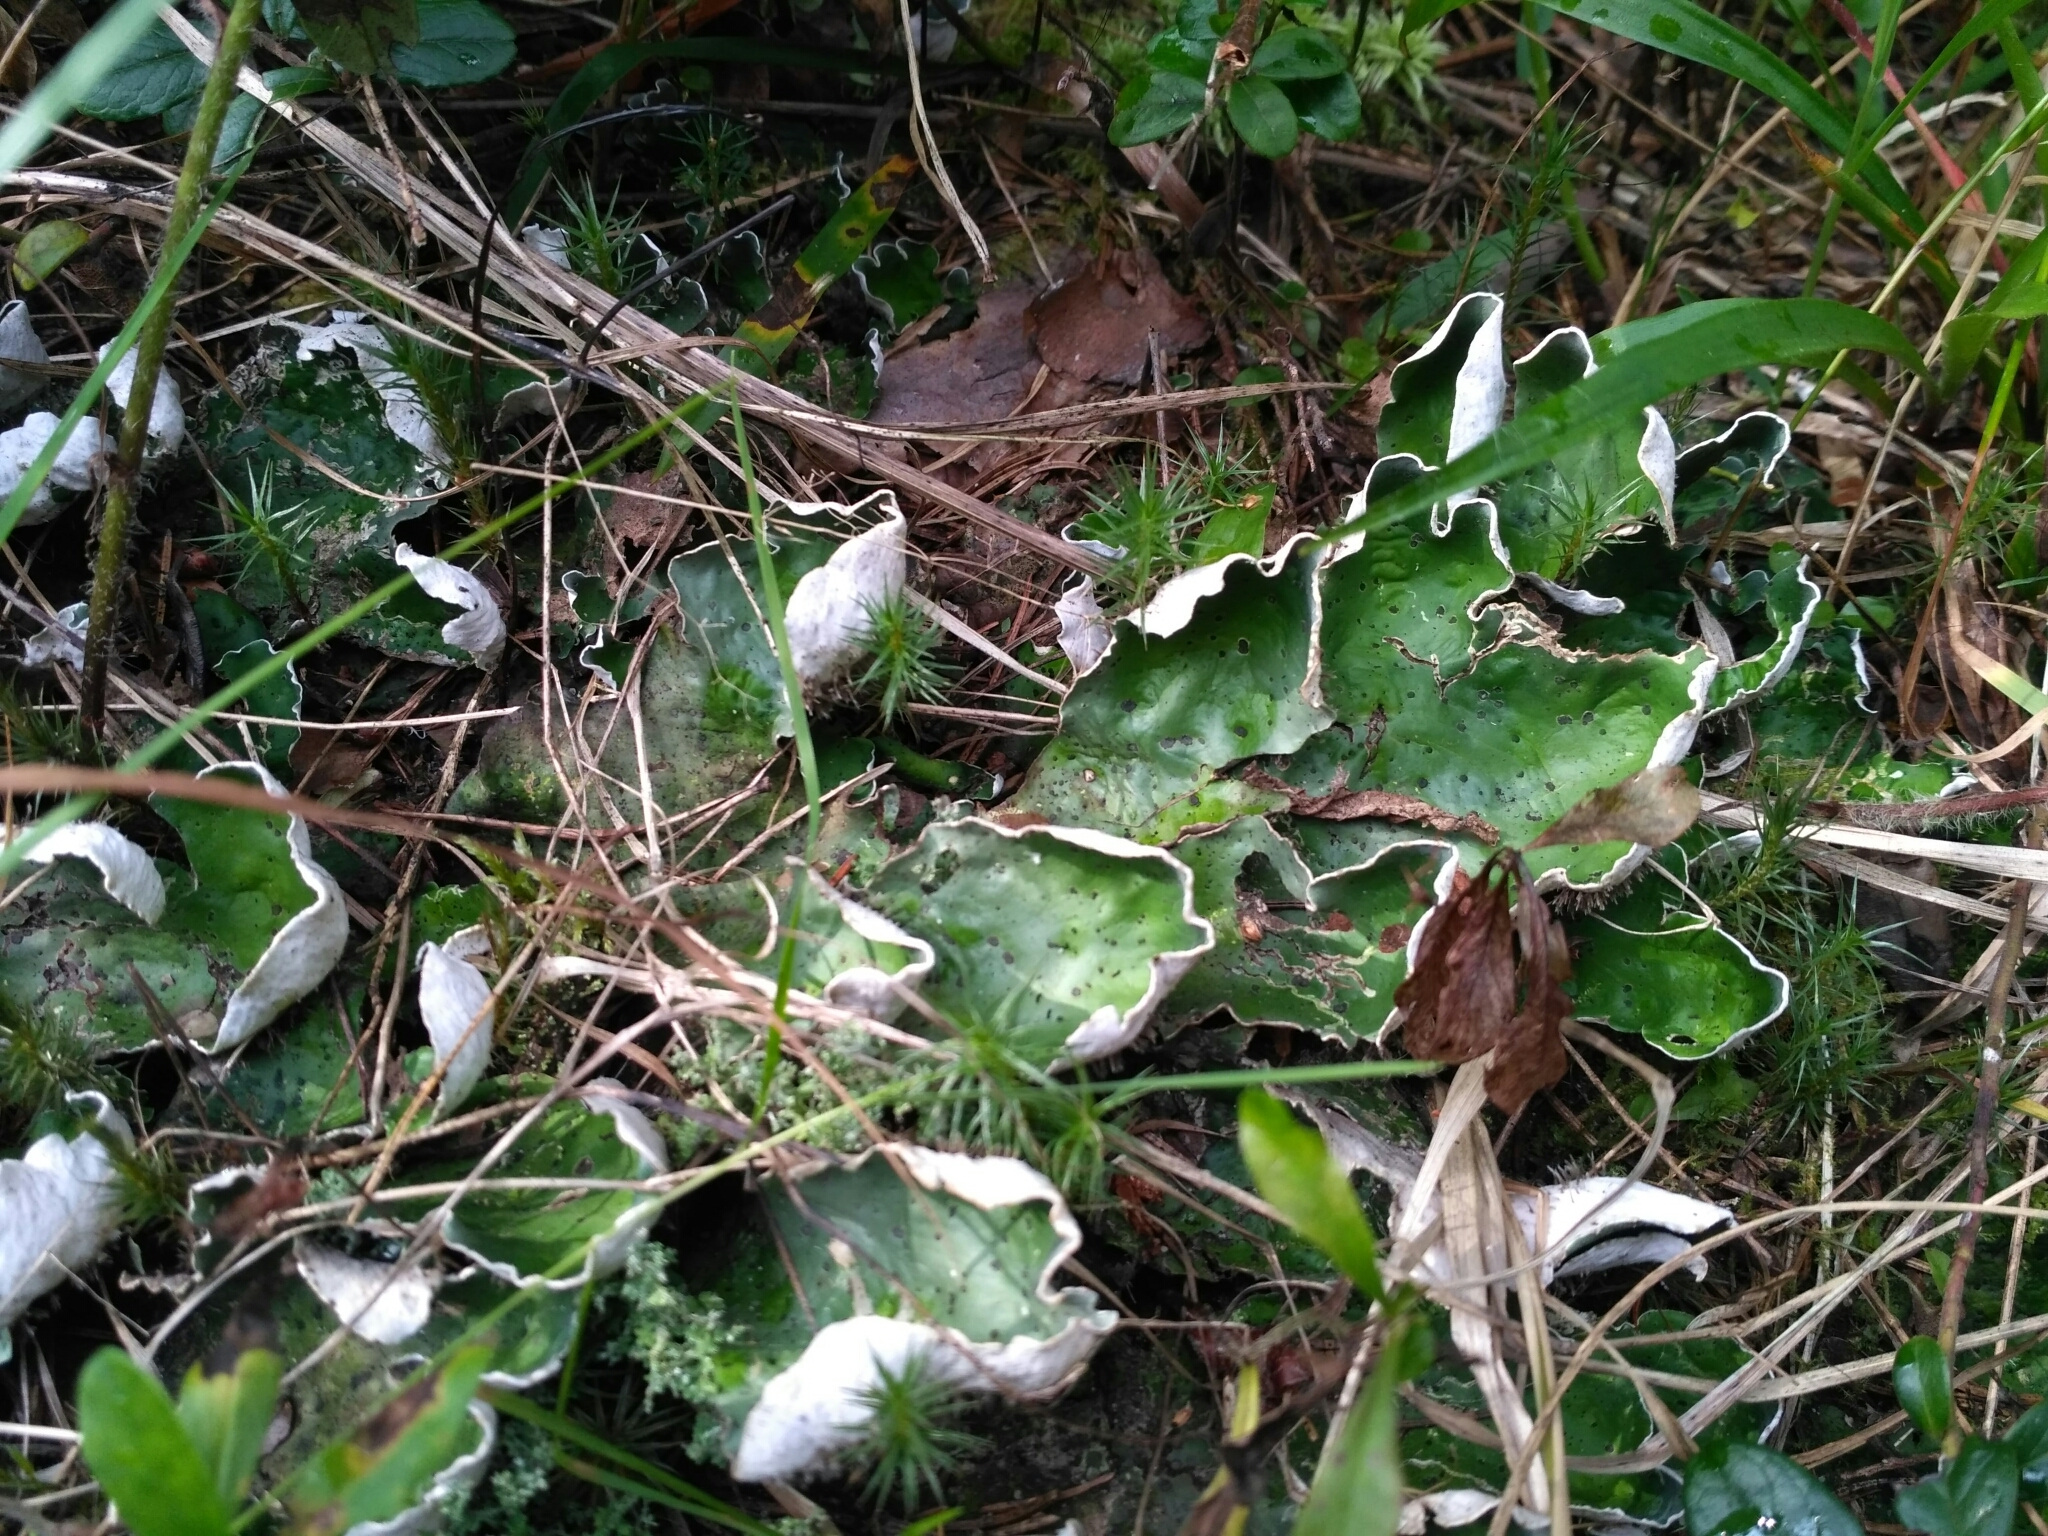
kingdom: Fungi
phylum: Ascomycota
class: Lecanoromycetes
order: Peltigerales
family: Peltigeraceae
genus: Peltigera
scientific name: Peltigera aphthosa
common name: Common freckle pelt lichen
